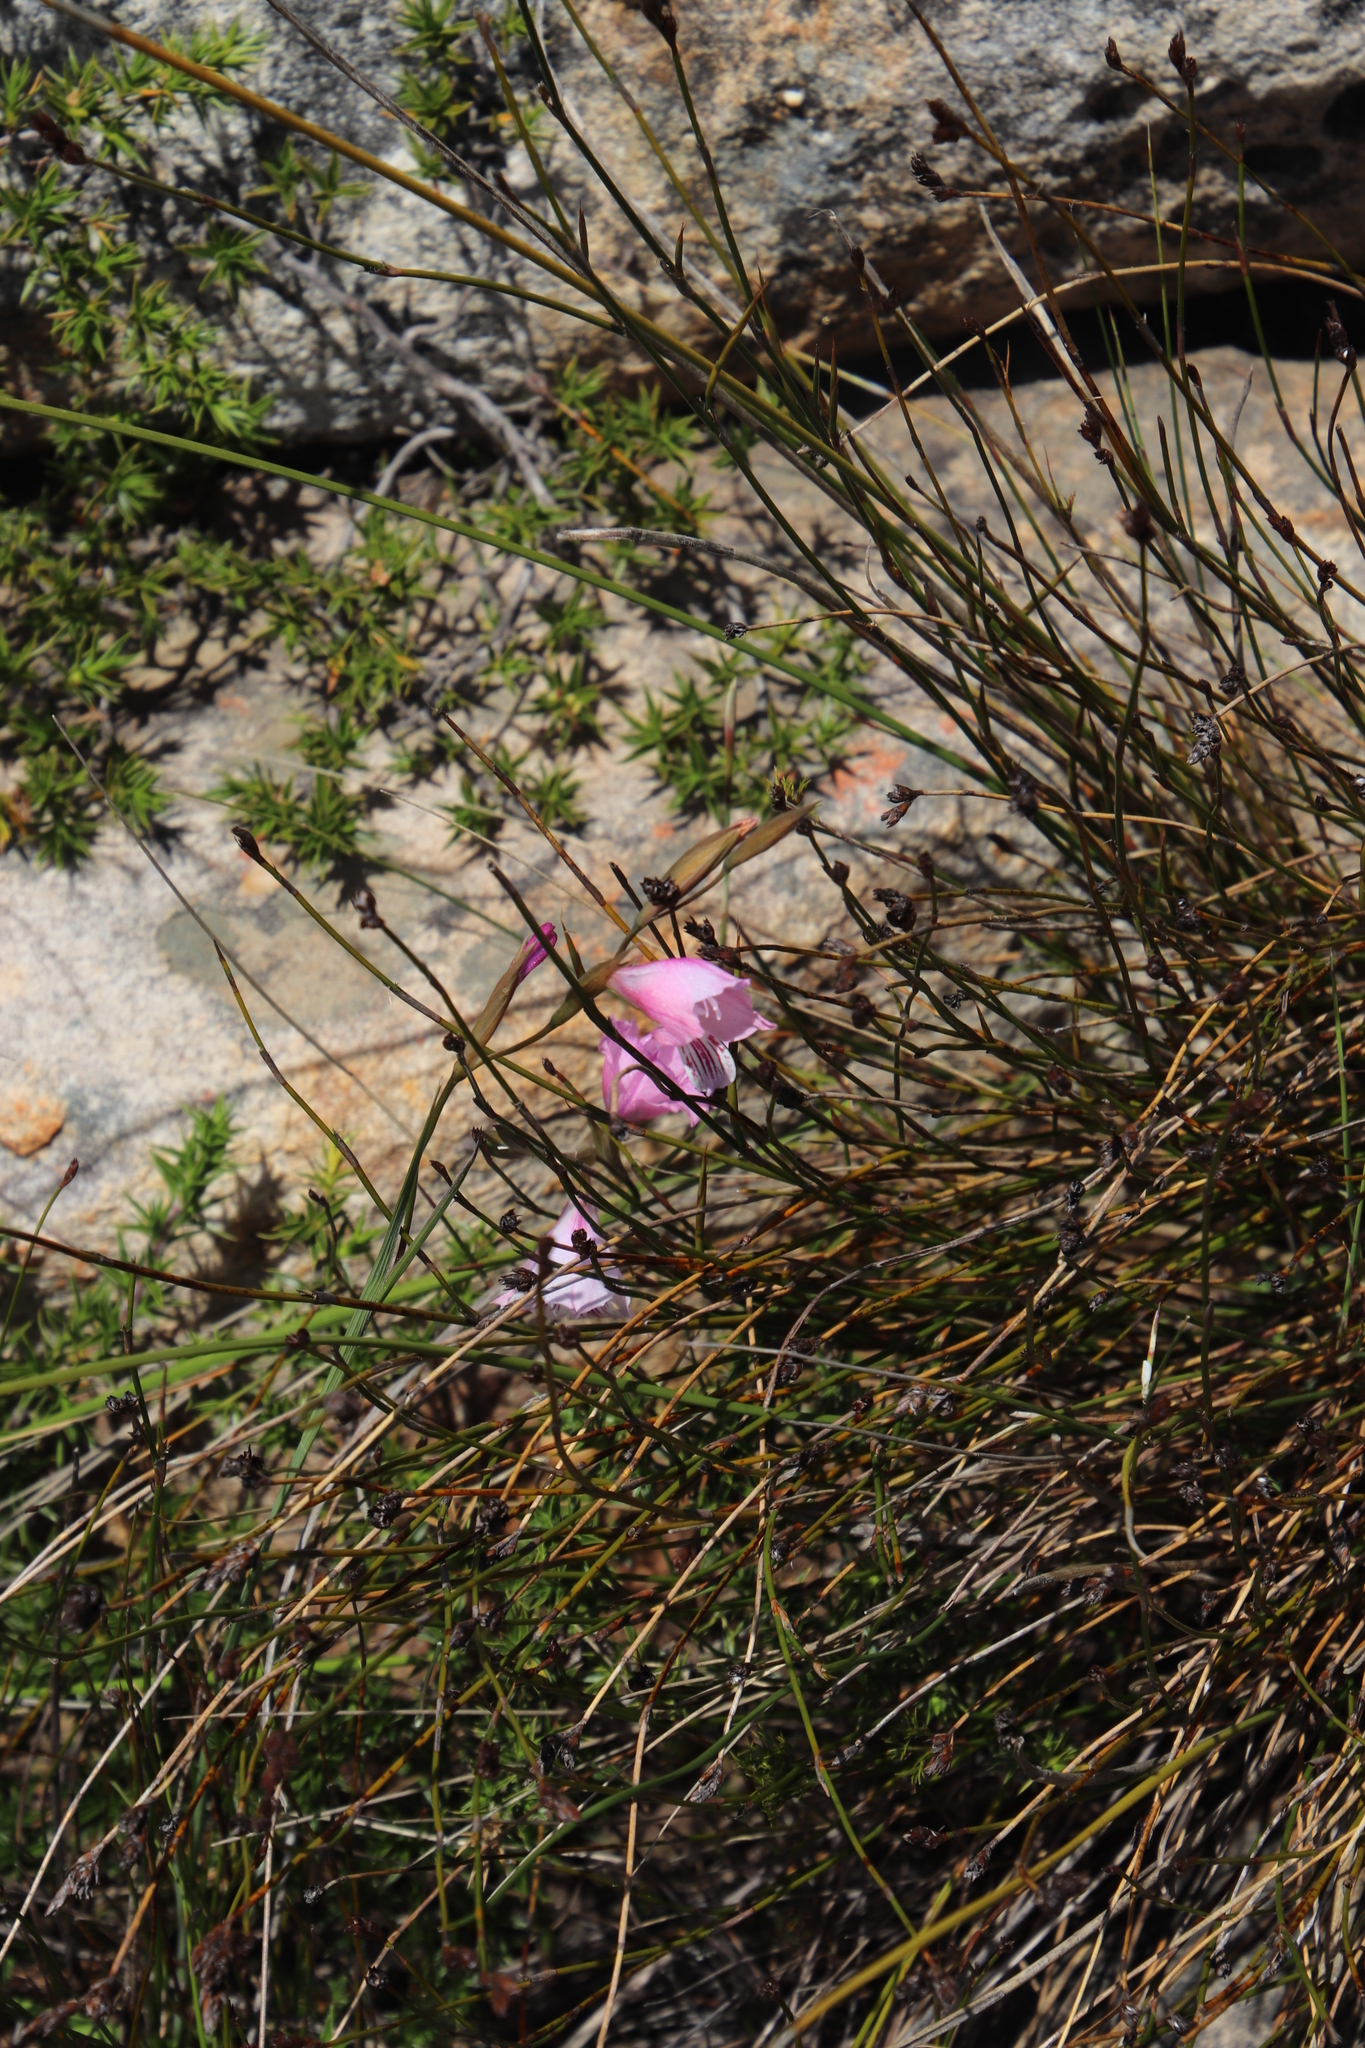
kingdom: Plantae
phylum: Tracheophyta
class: Liliopsida
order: Asparagales
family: Iridaceae
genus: Gladiolus
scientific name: Gladiolus hirsutus
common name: Small pink afrikaner
